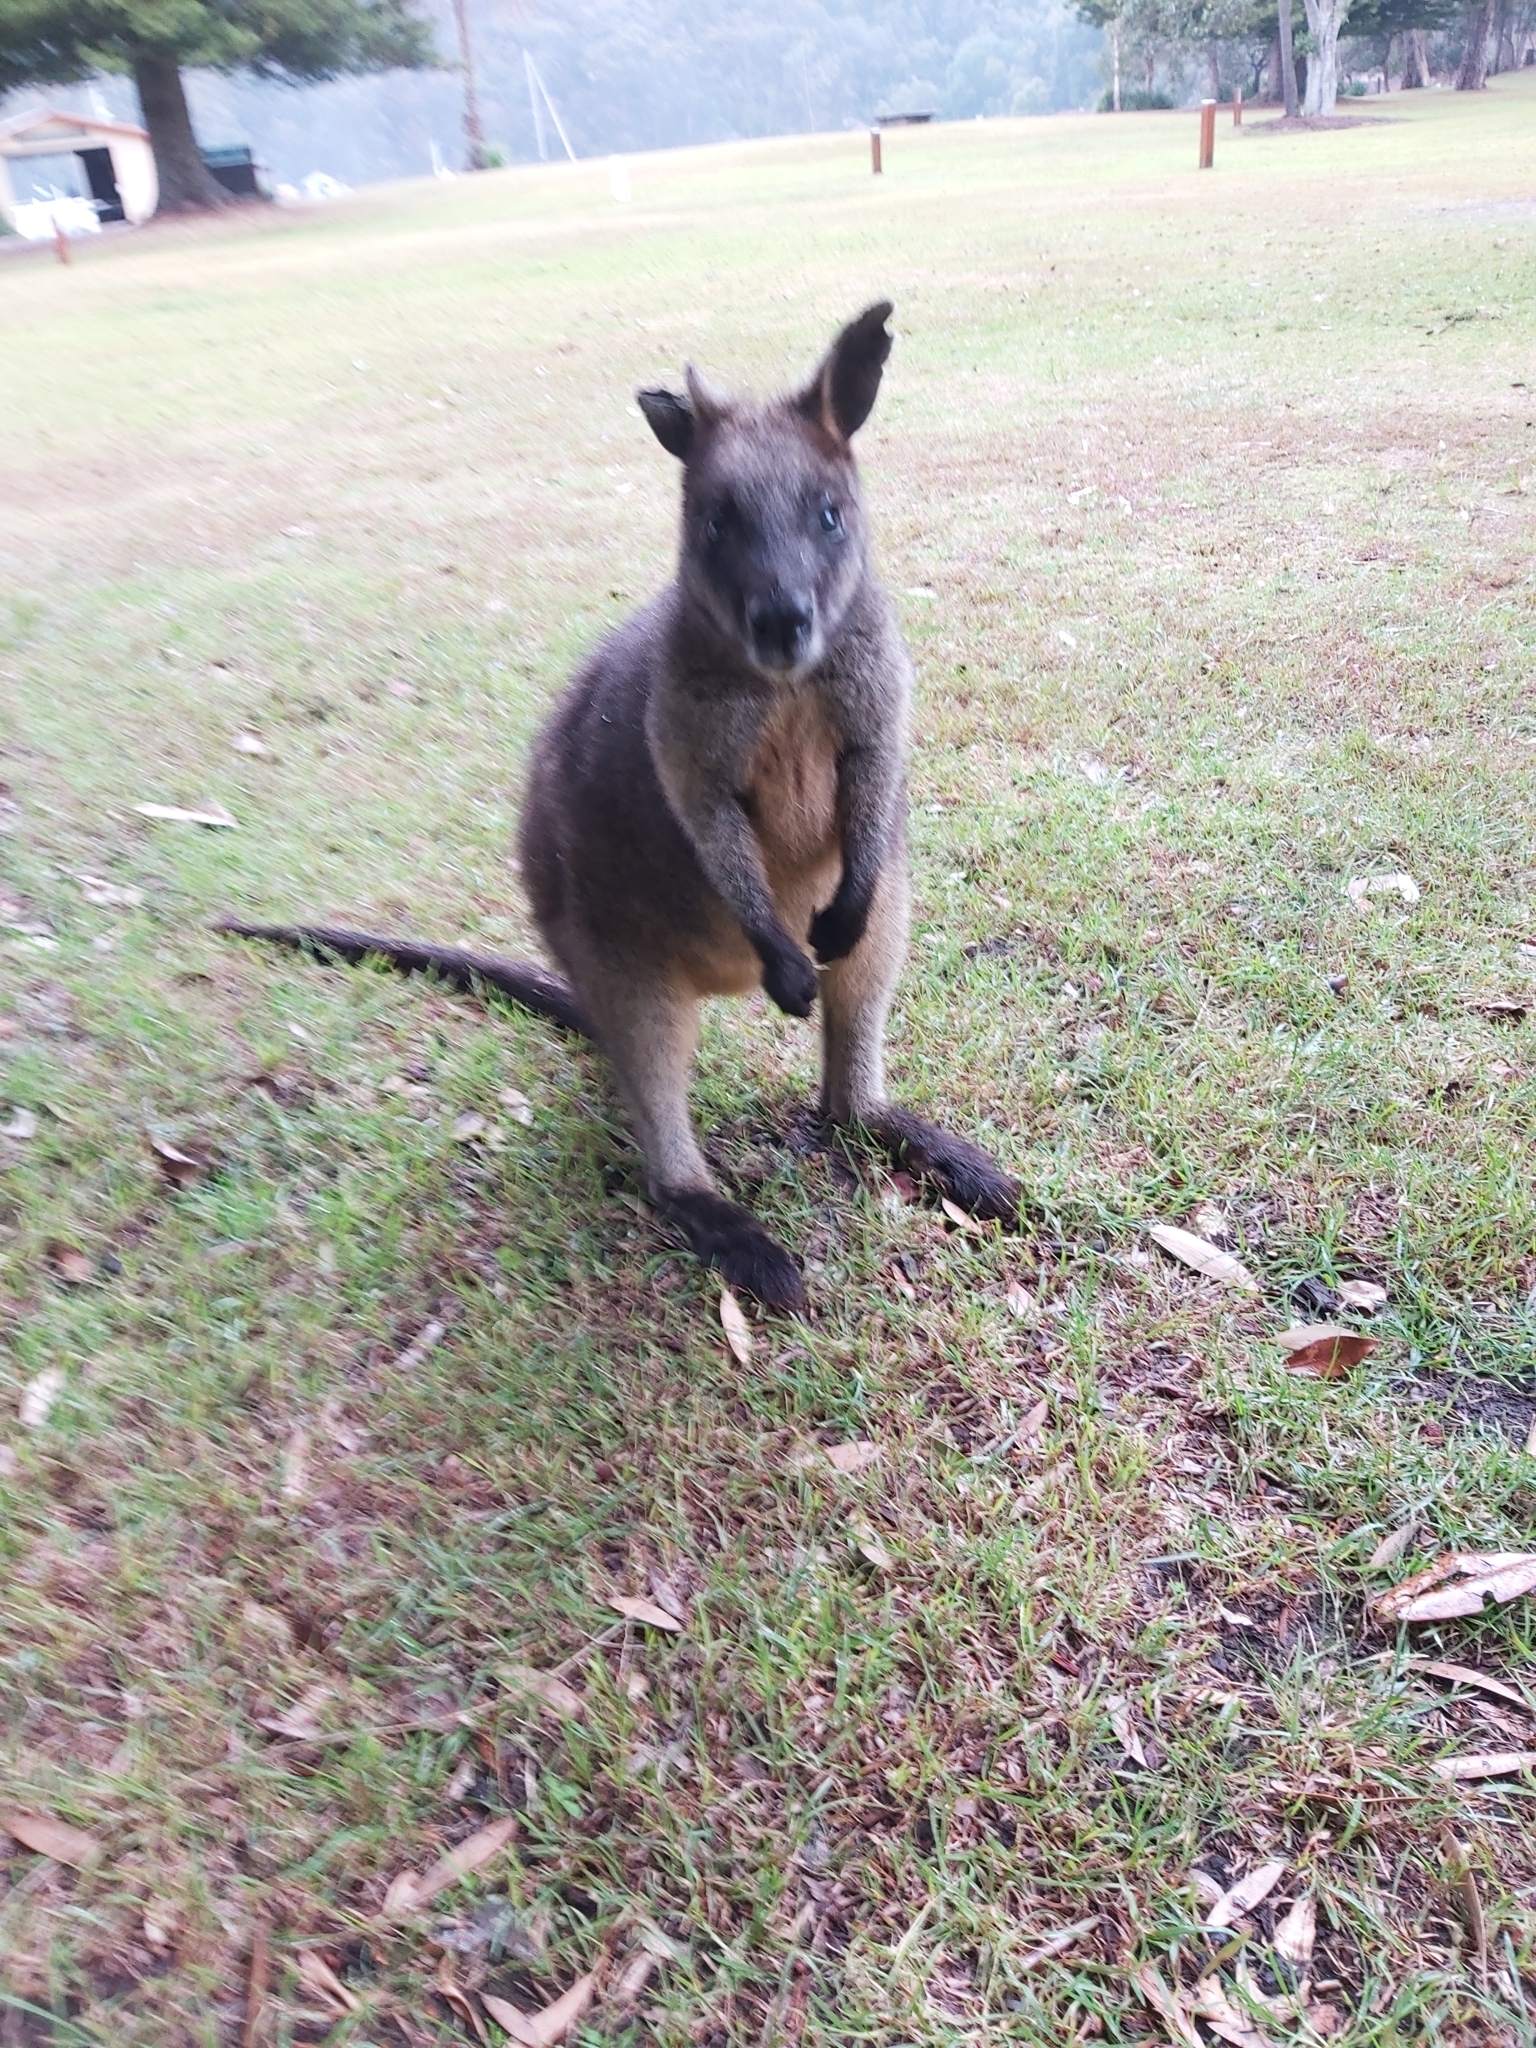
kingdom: Animalia
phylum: Chordata
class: Mammalia
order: Diprotodontia
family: Macropodidae
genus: Wallabia
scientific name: Wallabia bicolor
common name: Swamp wallaby
